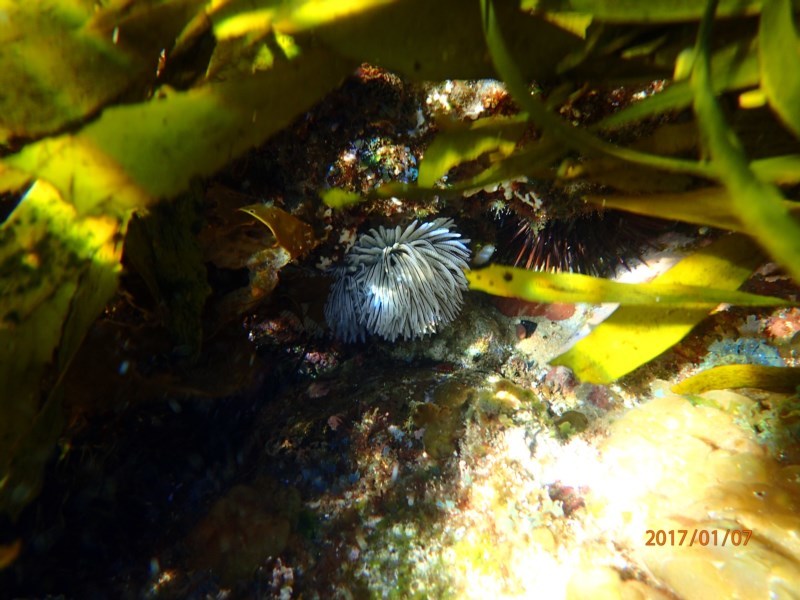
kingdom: Animalia
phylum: Annelida
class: Polychaeta
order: Sabellida
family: Sabellidae
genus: Sabellastarte
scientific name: Sabellastarte australiensis
